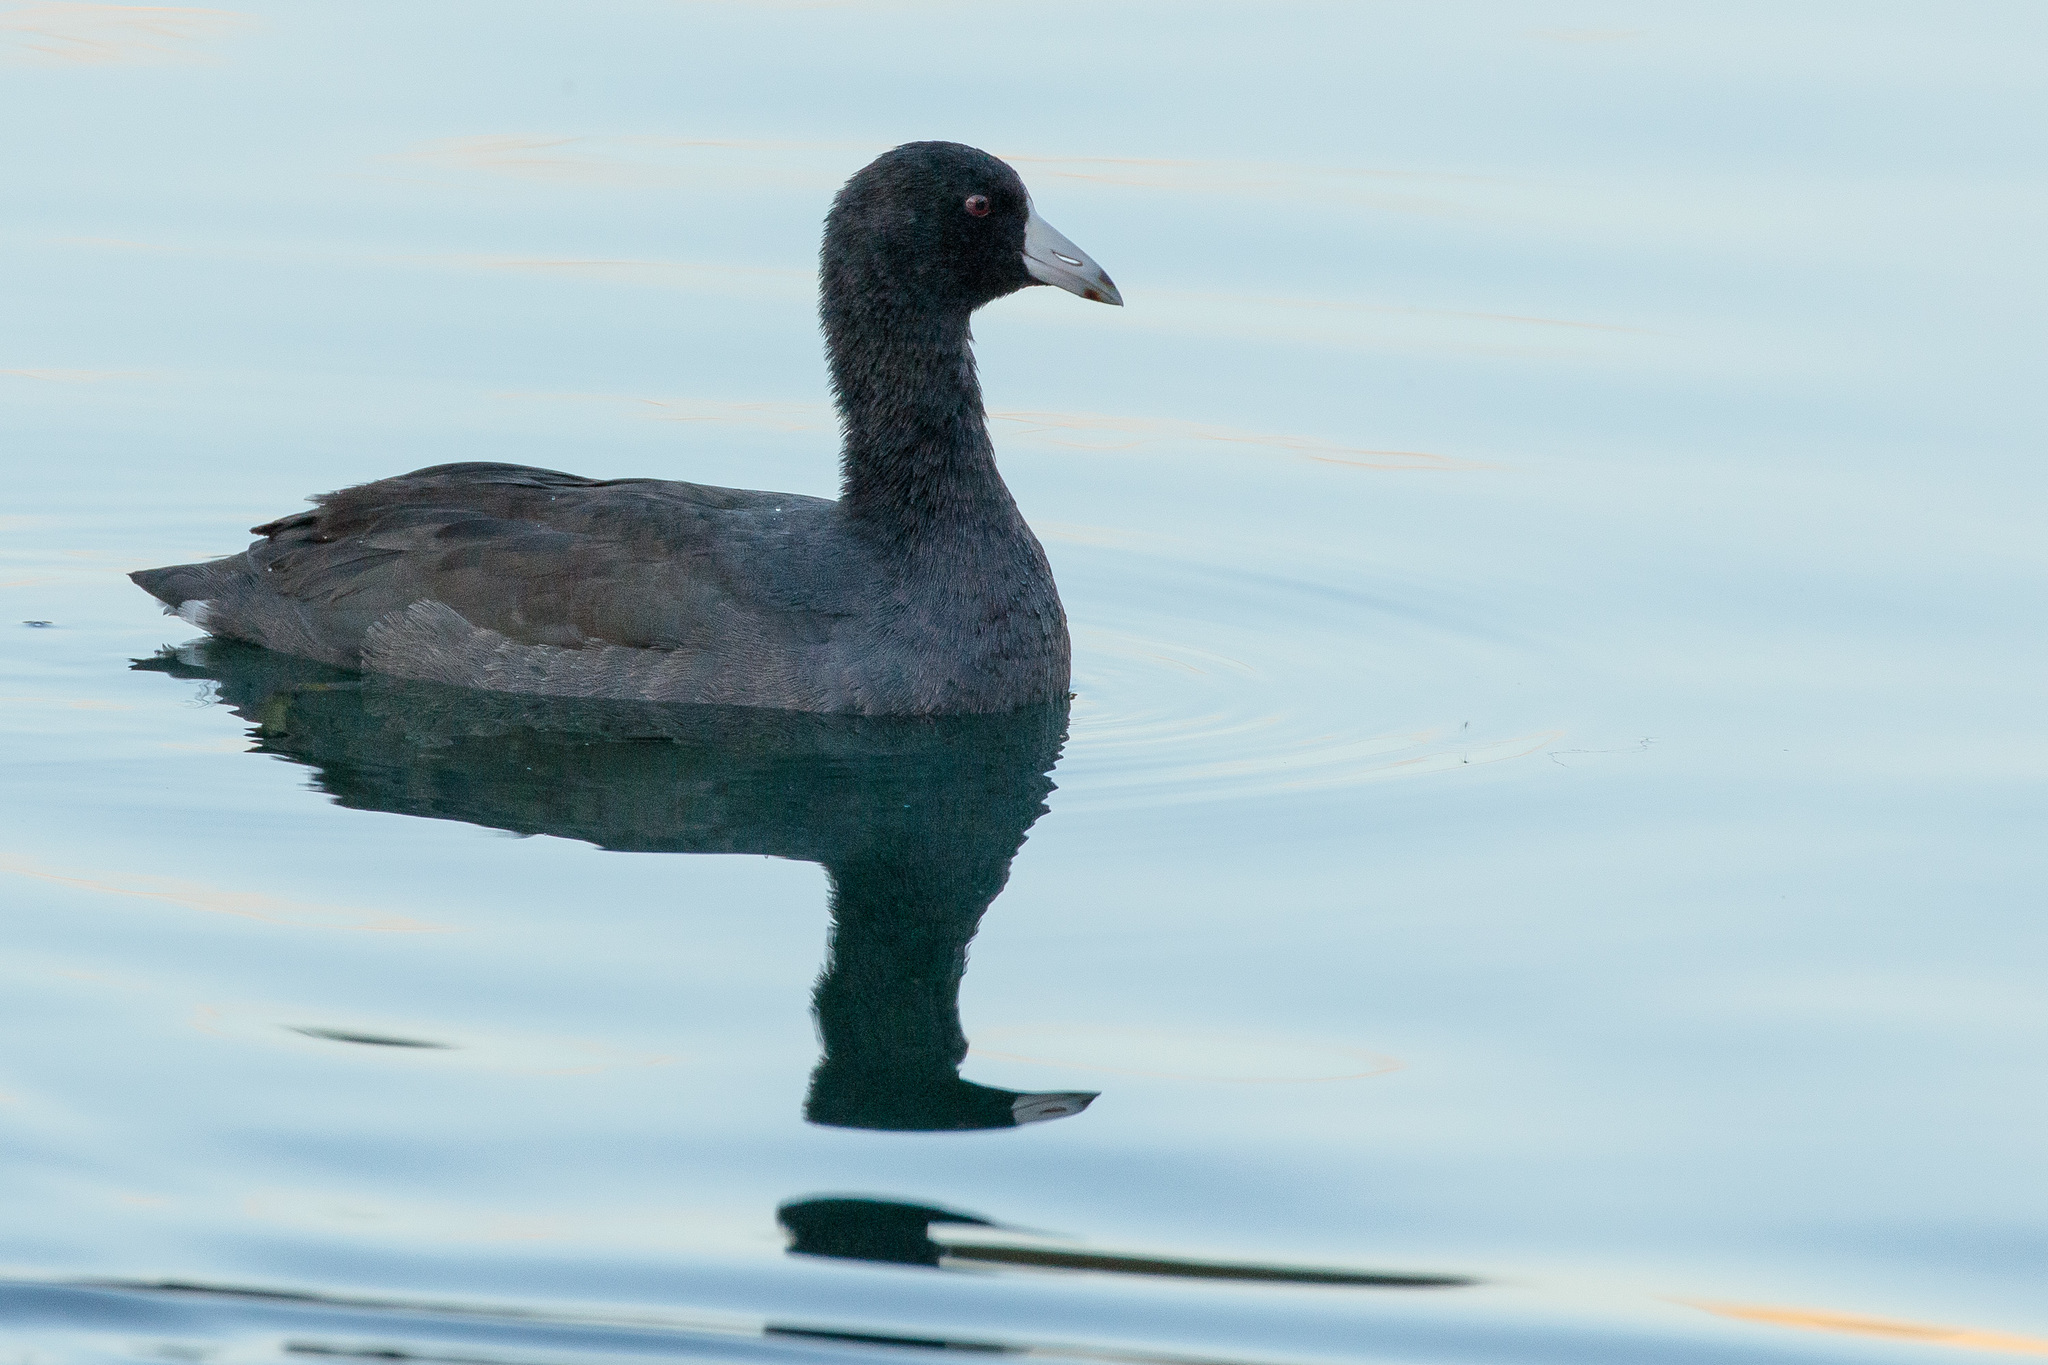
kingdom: Animalia
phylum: Chordata
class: Aves
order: Gruiformes
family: Rallidae
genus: Fulica
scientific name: Fulica americana
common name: American coot
